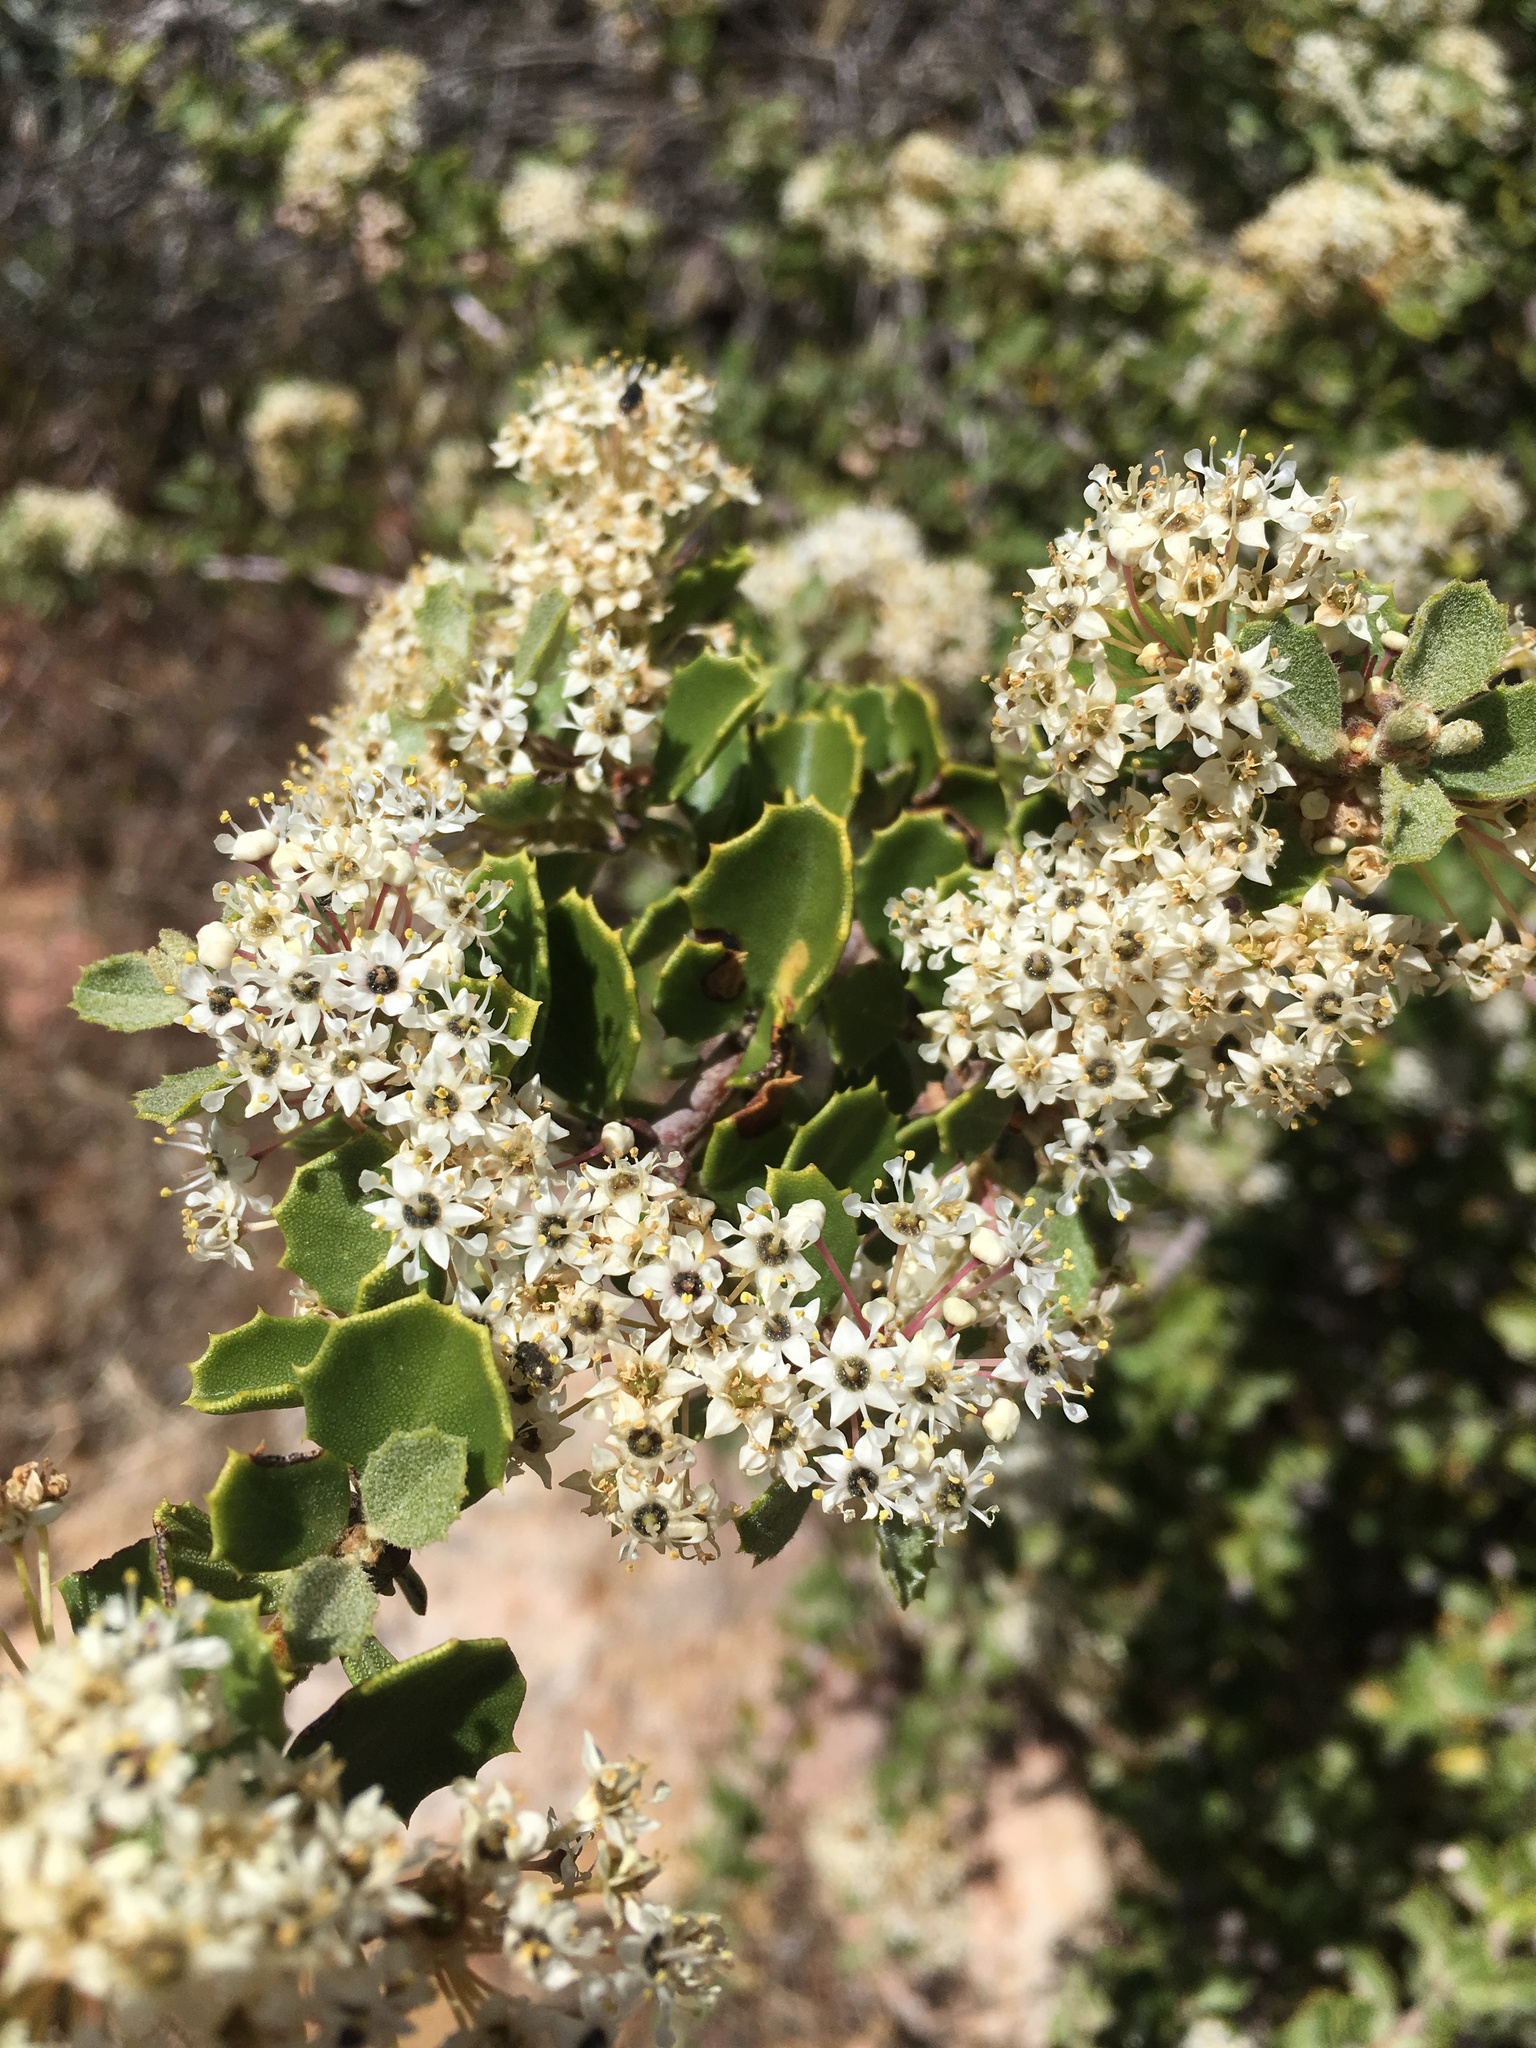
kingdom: Plantae
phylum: Tracheophyta
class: Magnoliopsida
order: Rosales
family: Rhamnaceae
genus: Ceanothus
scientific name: Ceanothus perplexans
